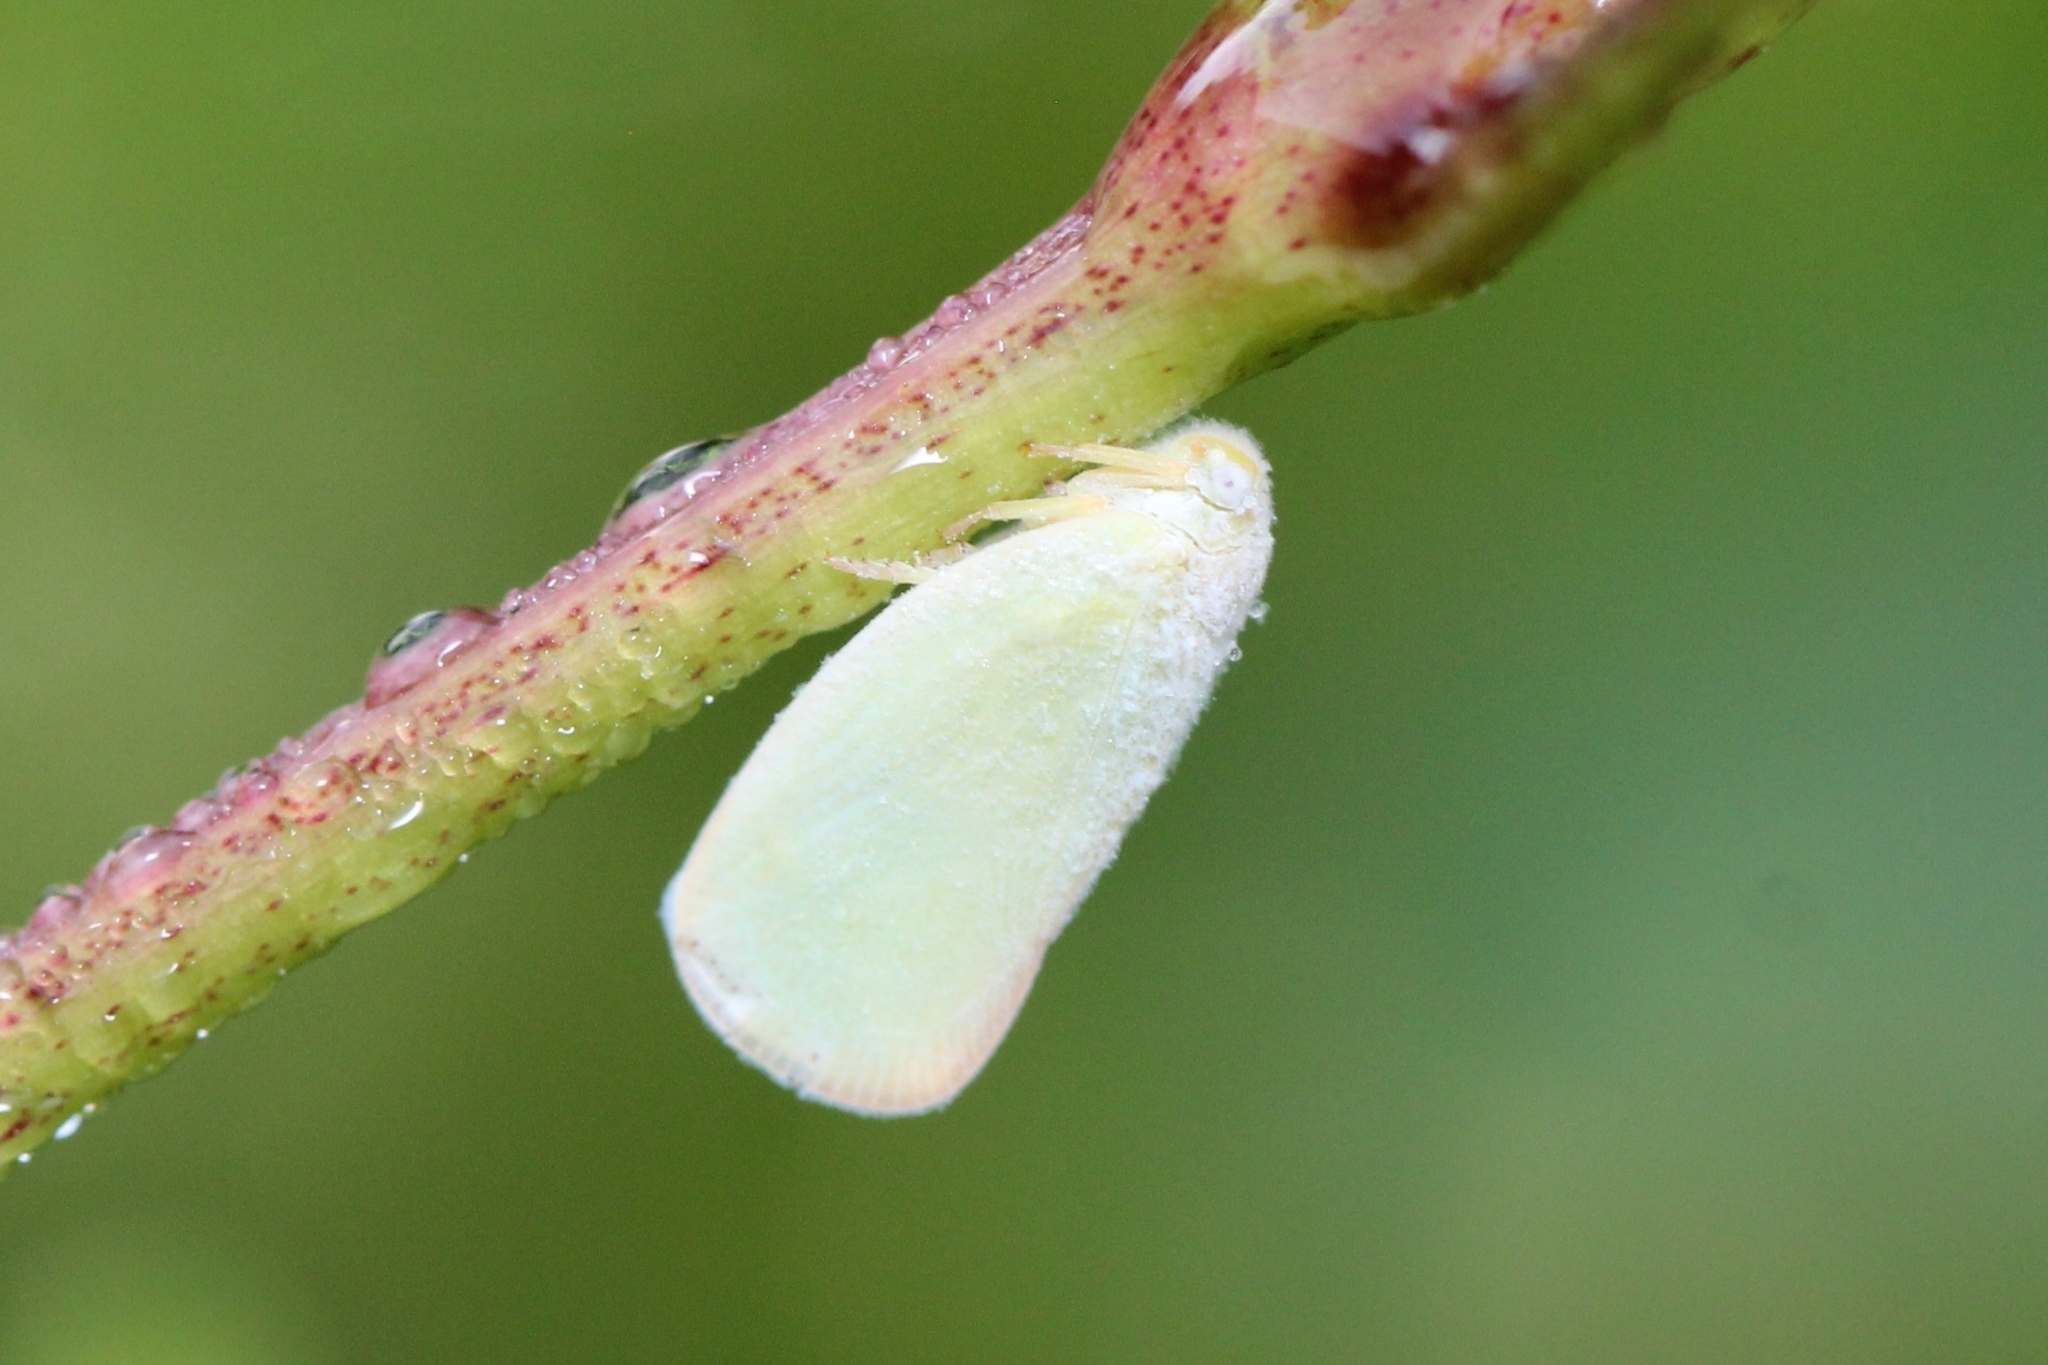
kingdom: Animalia
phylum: Arthropoda
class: Insecta
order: Hemiptera
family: Flatidae
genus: Ormenoides
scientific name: Ormenoides venusta
